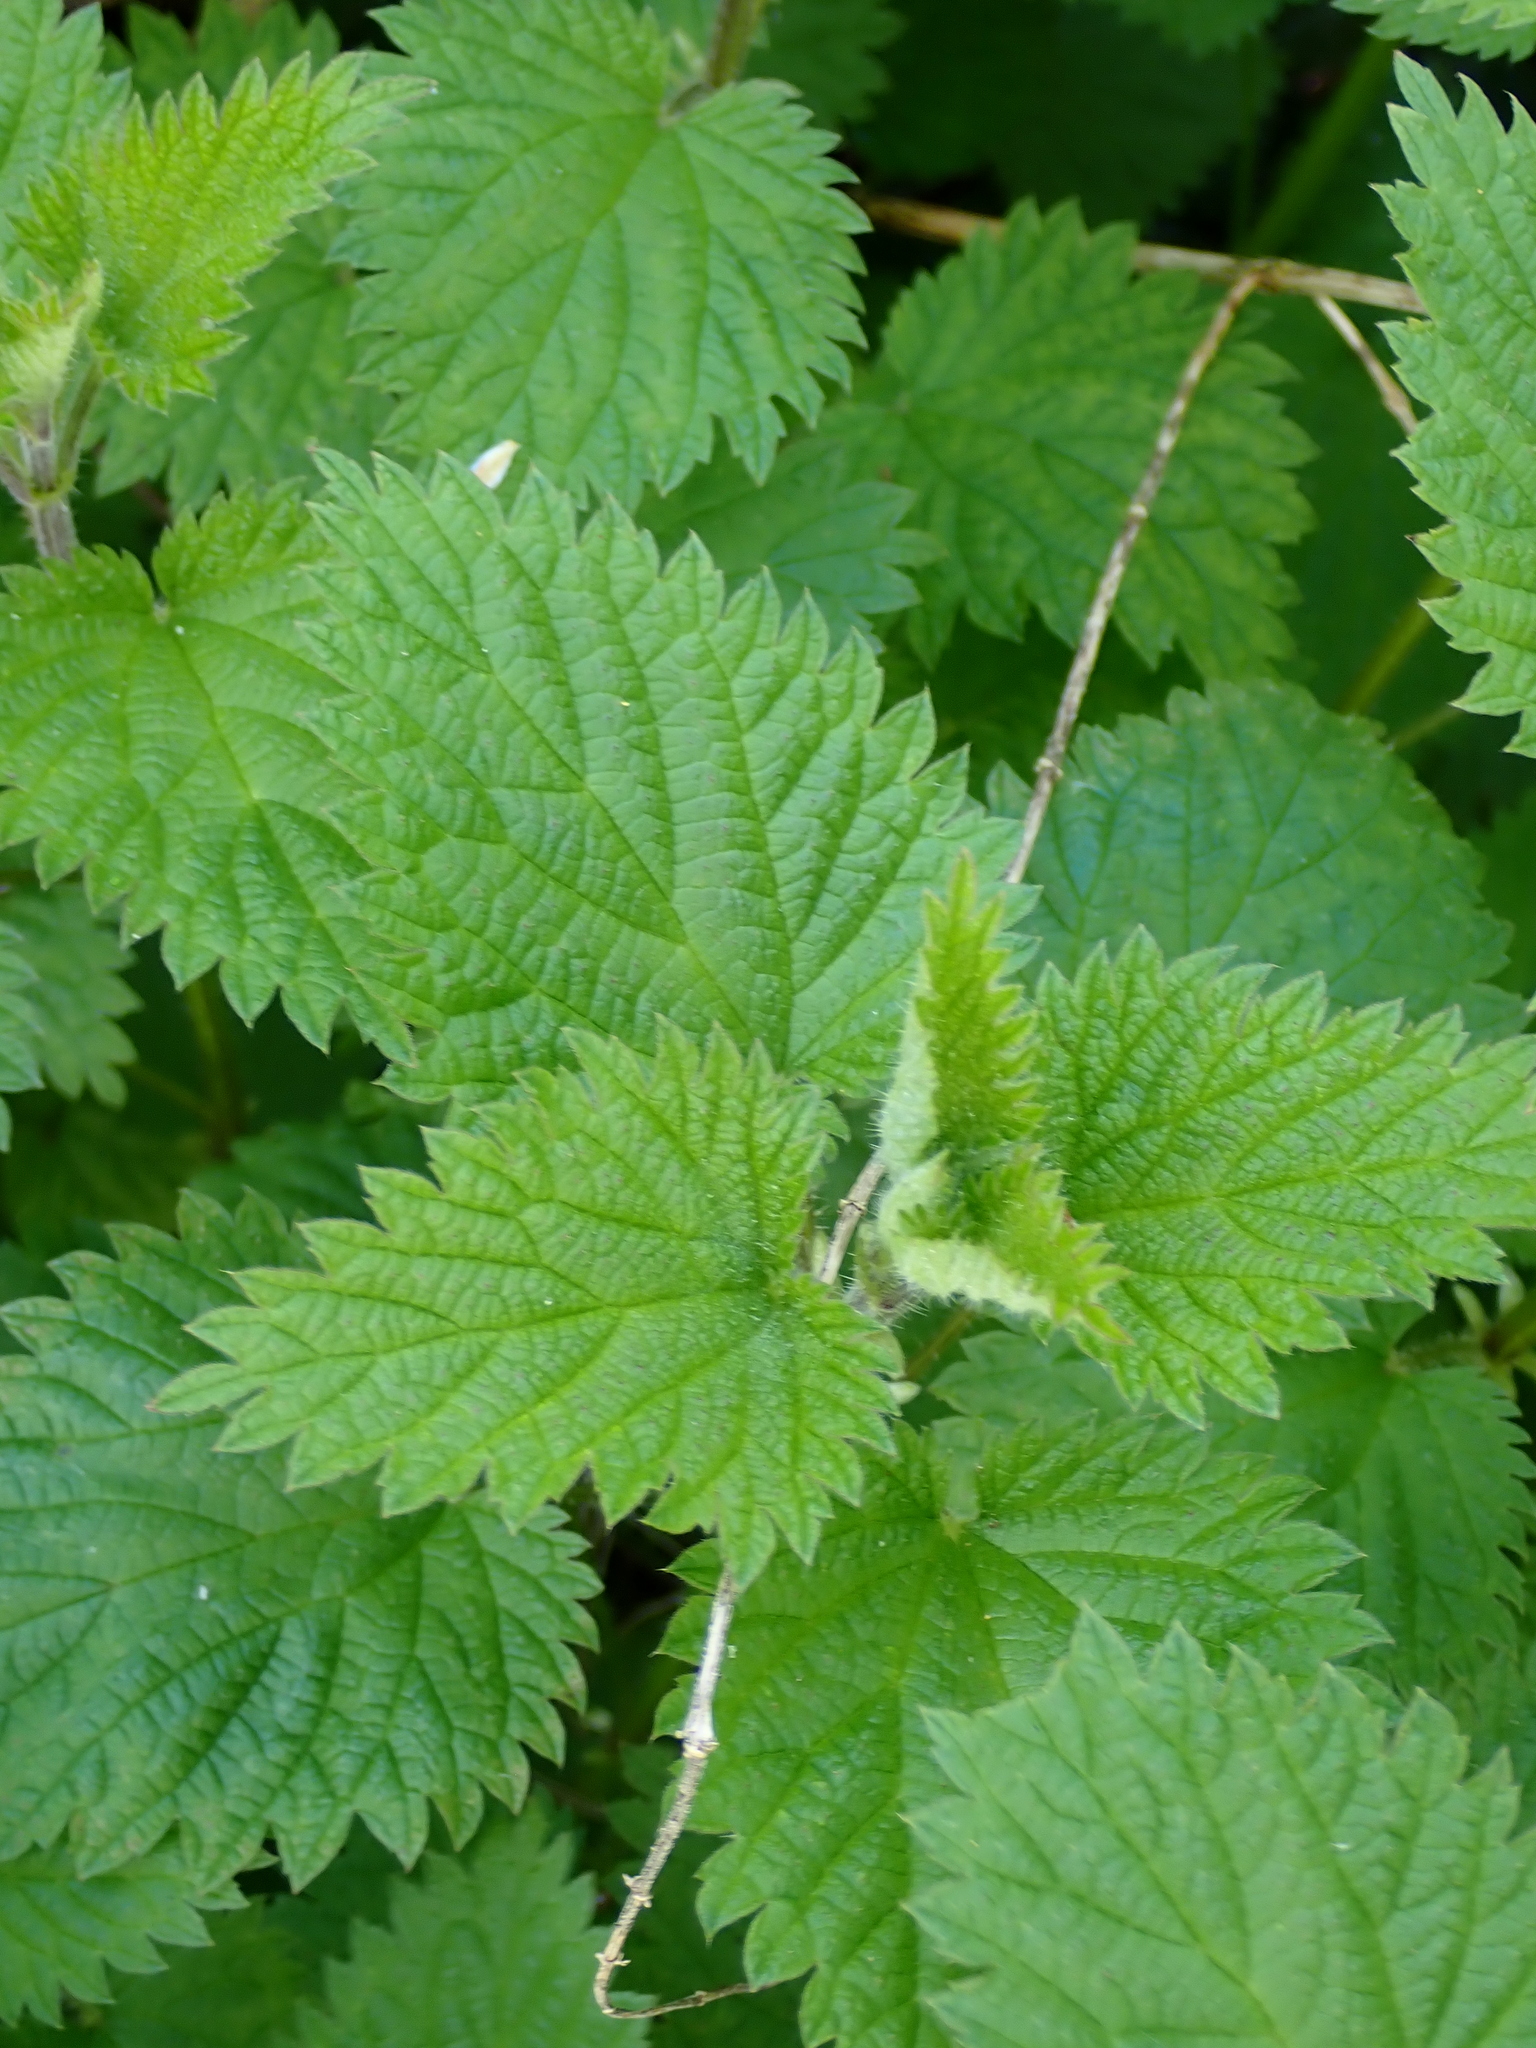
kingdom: Plantae
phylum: Tracheophyta
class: Magnoliopsida
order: Rosales
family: Urticaceae
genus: Urtica
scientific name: Urtica dioica
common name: Common nettle
